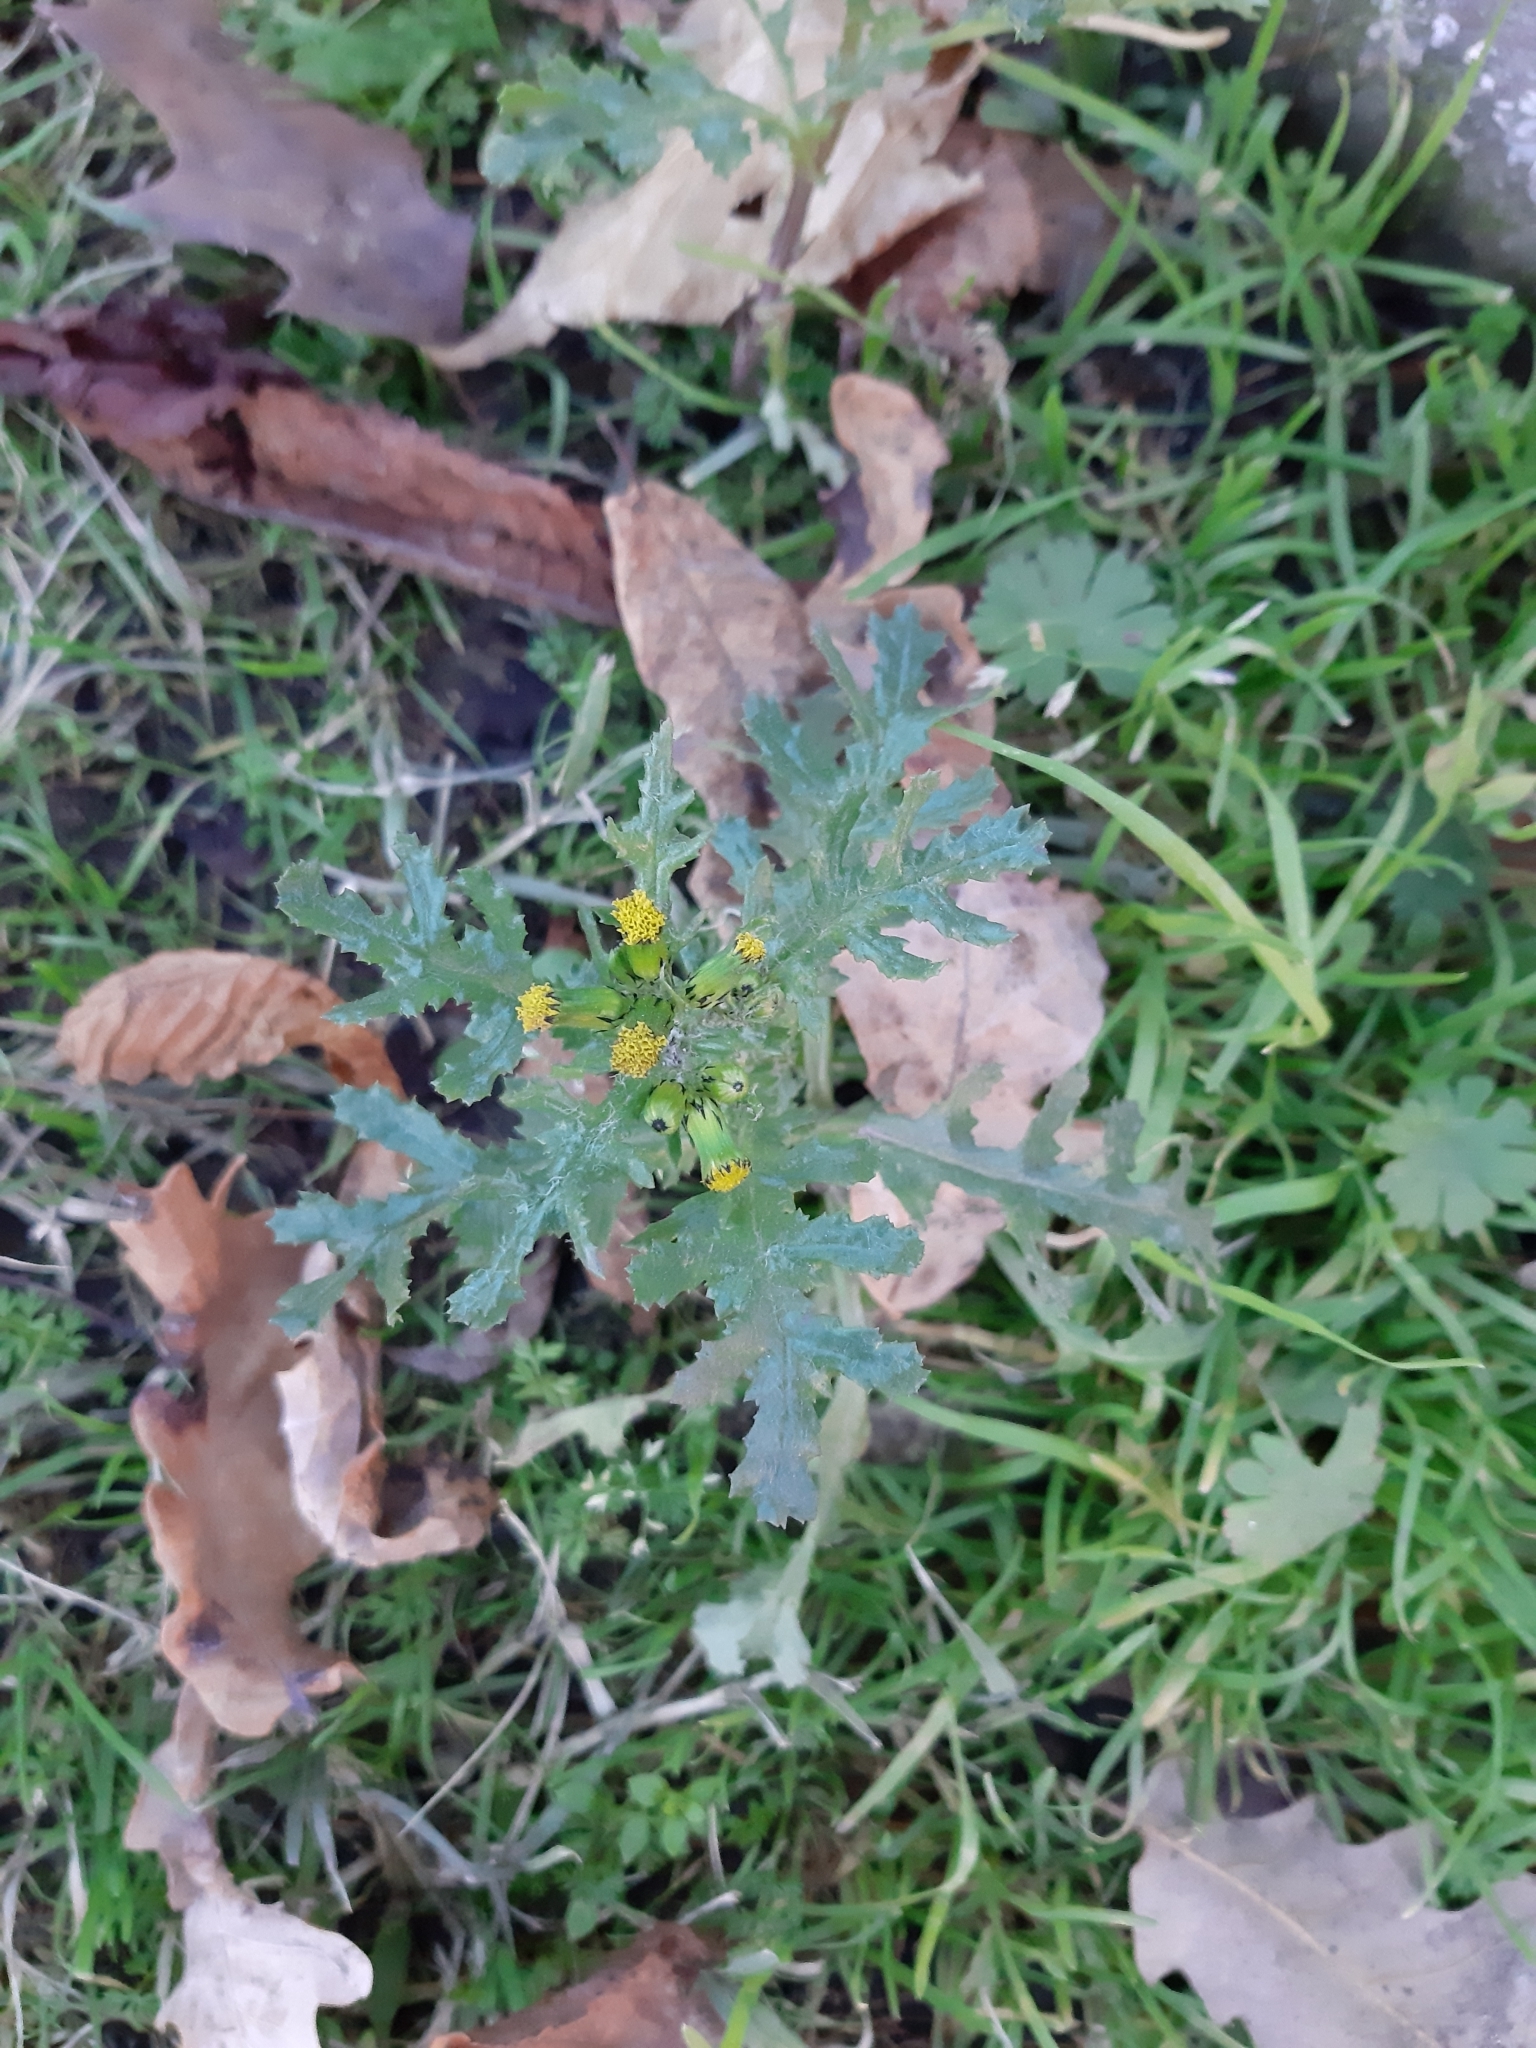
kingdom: Plantae
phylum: Tracheophyta
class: Magnoliopsida
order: Asterales
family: Asteraceae
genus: Senecio
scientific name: Senecio vulgaris
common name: Old-man-in-the-spring
